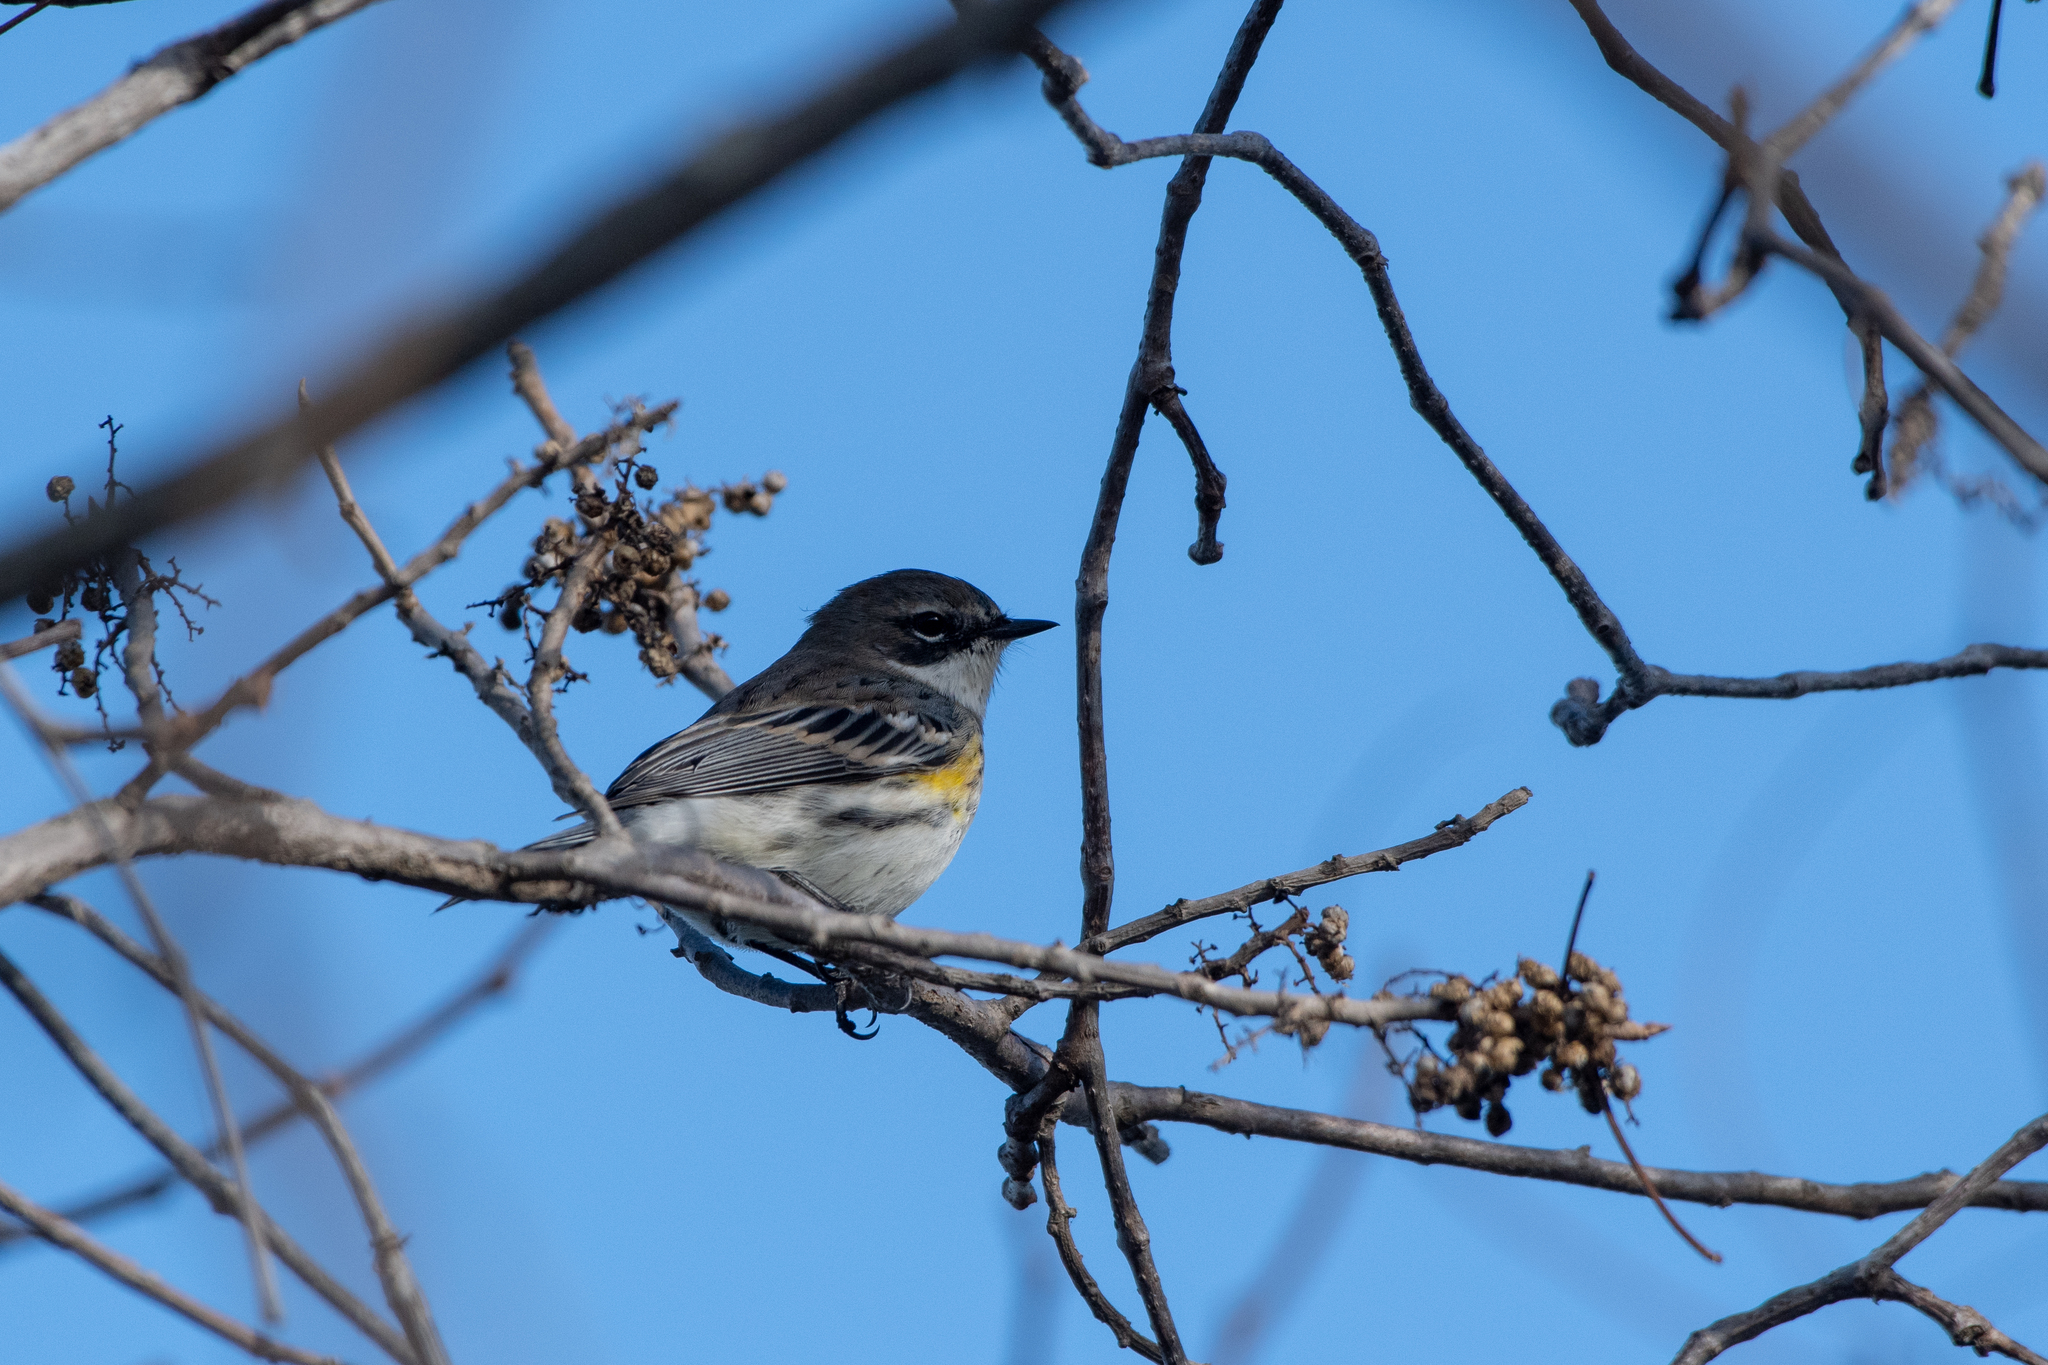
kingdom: Animalia
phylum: Chordata
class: Aves
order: Passeriformes
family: Parulidae
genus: Setophaga
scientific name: Setophaga coronata
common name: Myrtle warbler
